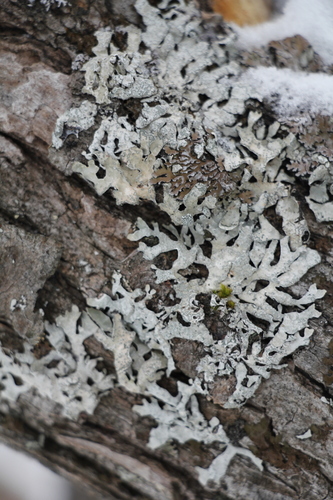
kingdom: Fungi
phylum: Ascomycota
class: Lecanoromycetes
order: Lecanorales
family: Parmeliaceae
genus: Parmelia
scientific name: Parmelia
